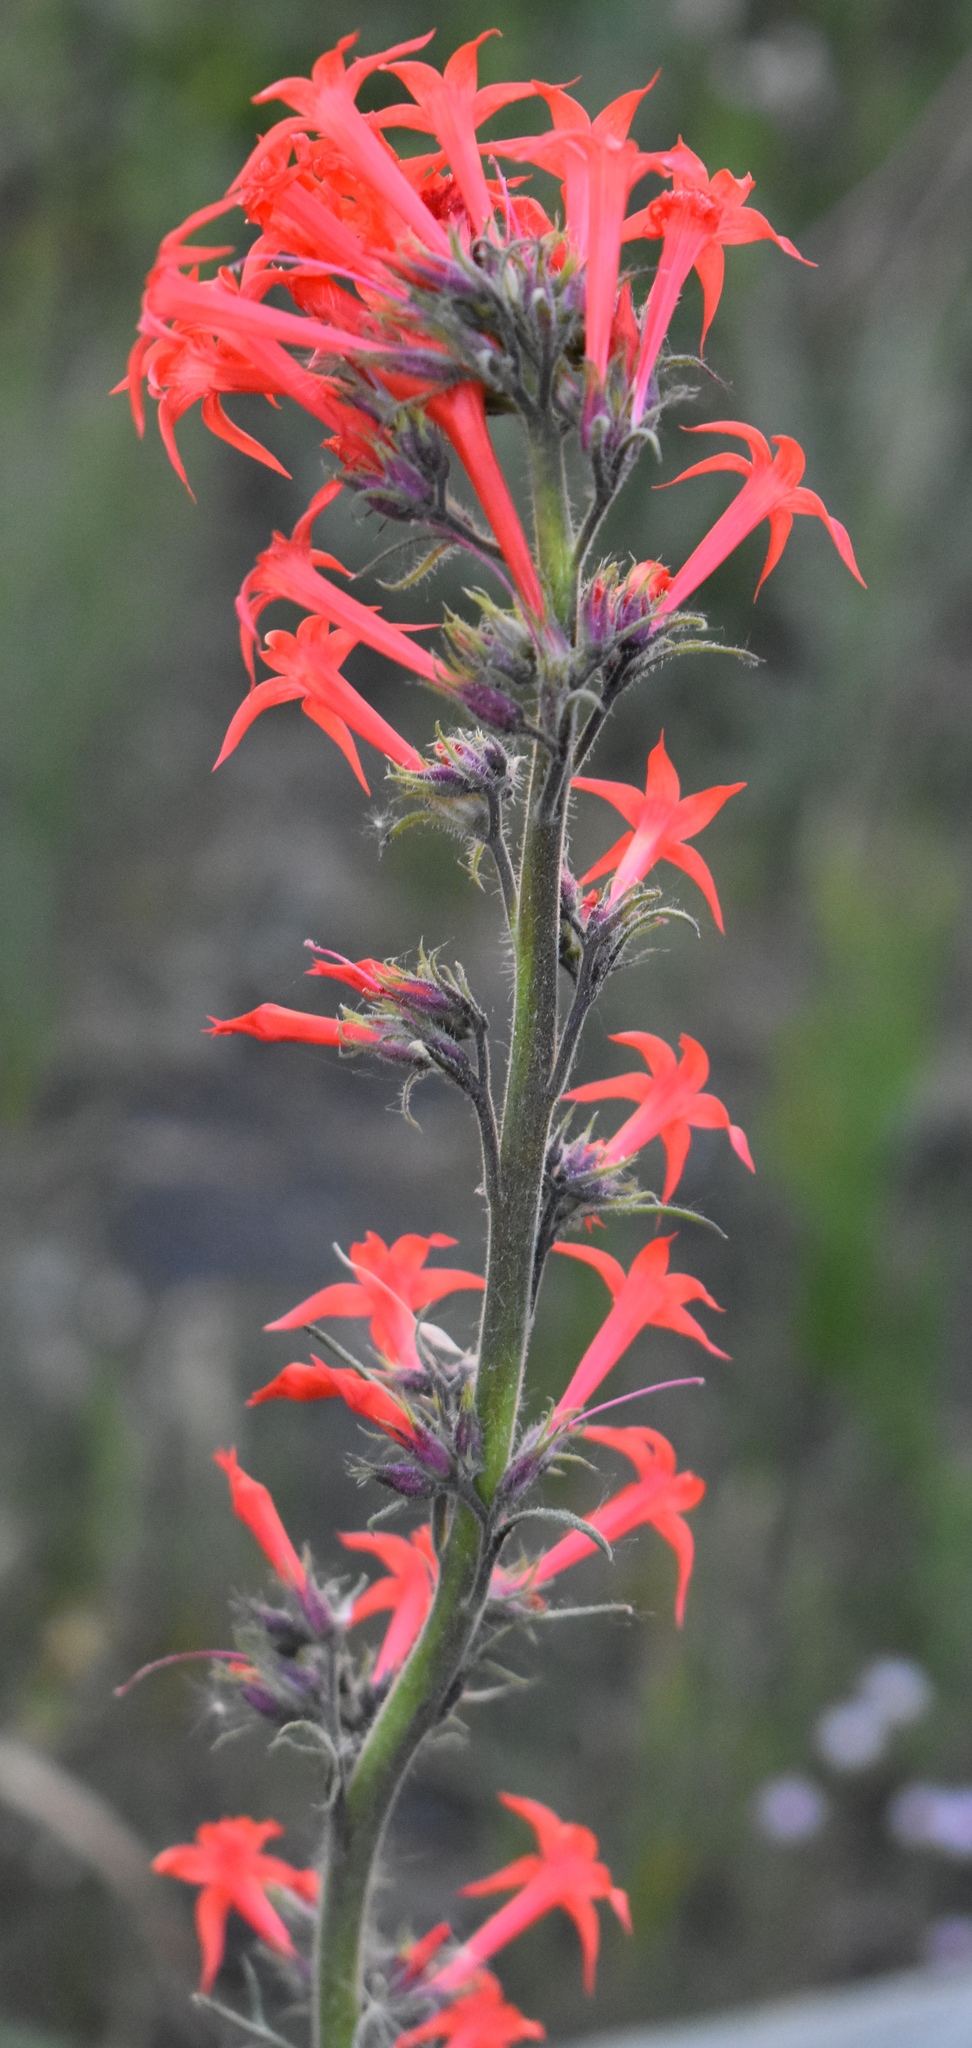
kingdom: Plantae
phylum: Tracheophyta
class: Magnoliopsida
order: Ericales
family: Polemoniaceae
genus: Ipomopsis
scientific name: Ipomopsis aggregata
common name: Scarlet gilia
